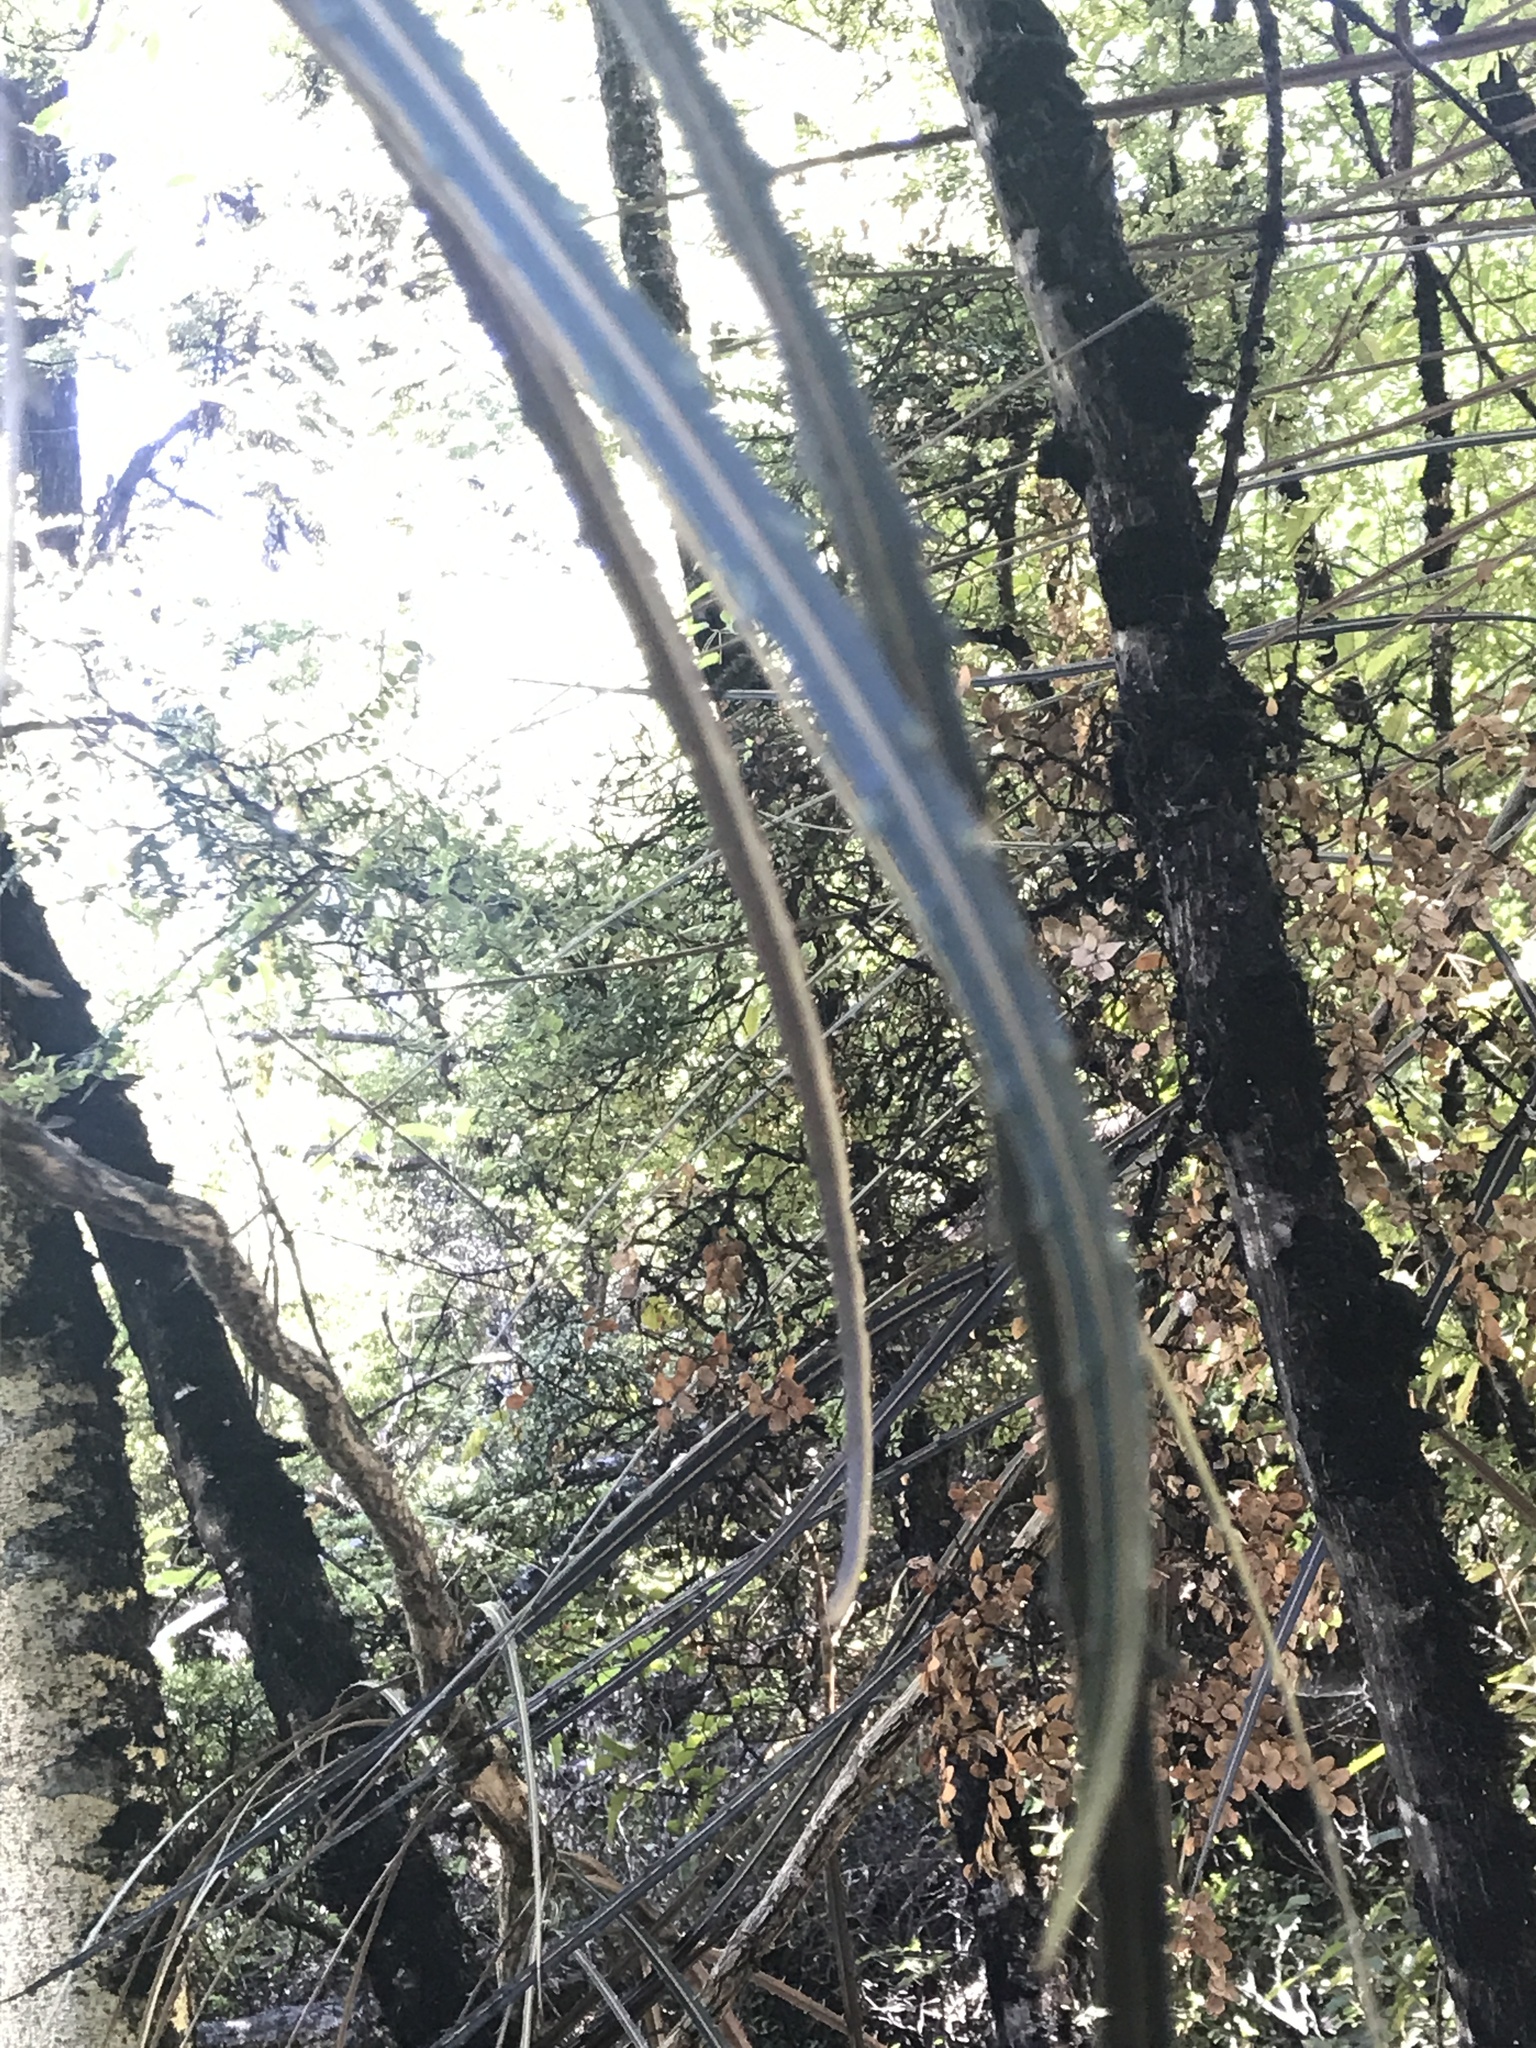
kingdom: Plantae
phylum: Tracheophyta
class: Magnoliopsida
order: Apiales
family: Araliaceae
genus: Pseudopanax
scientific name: Pseudopanax crassifolius
